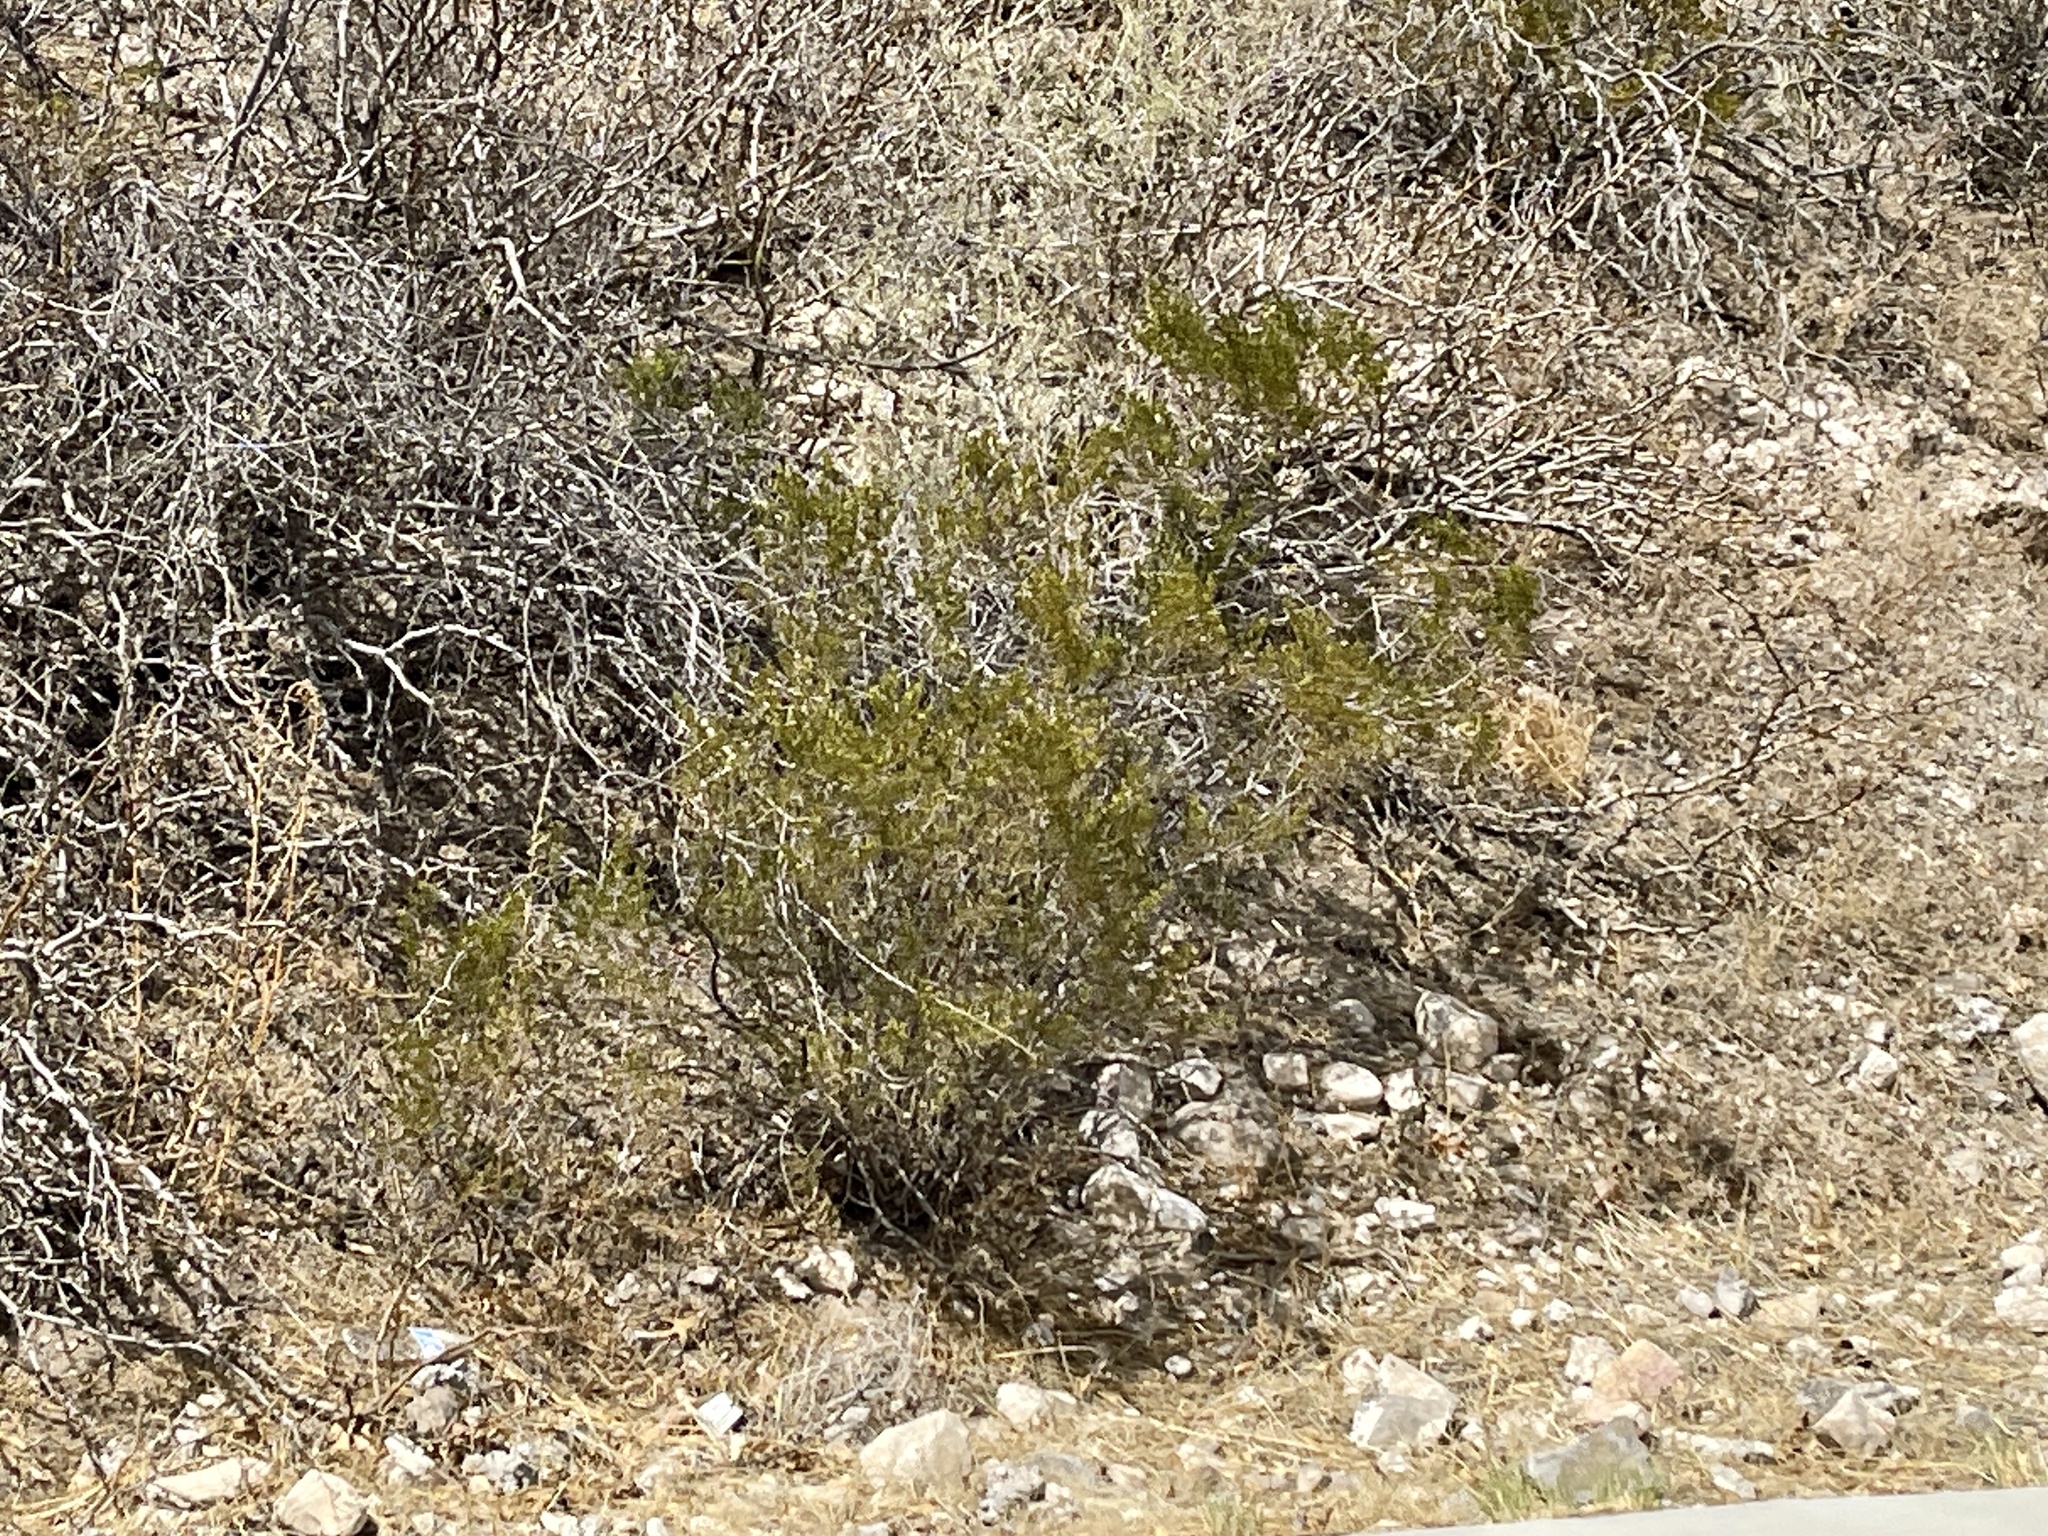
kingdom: Plantae
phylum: Tracheophyta
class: Magnoliopsida
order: Zygophyllales
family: Zygophyllaceae
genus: Larrea
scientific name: Larrea tridentata
